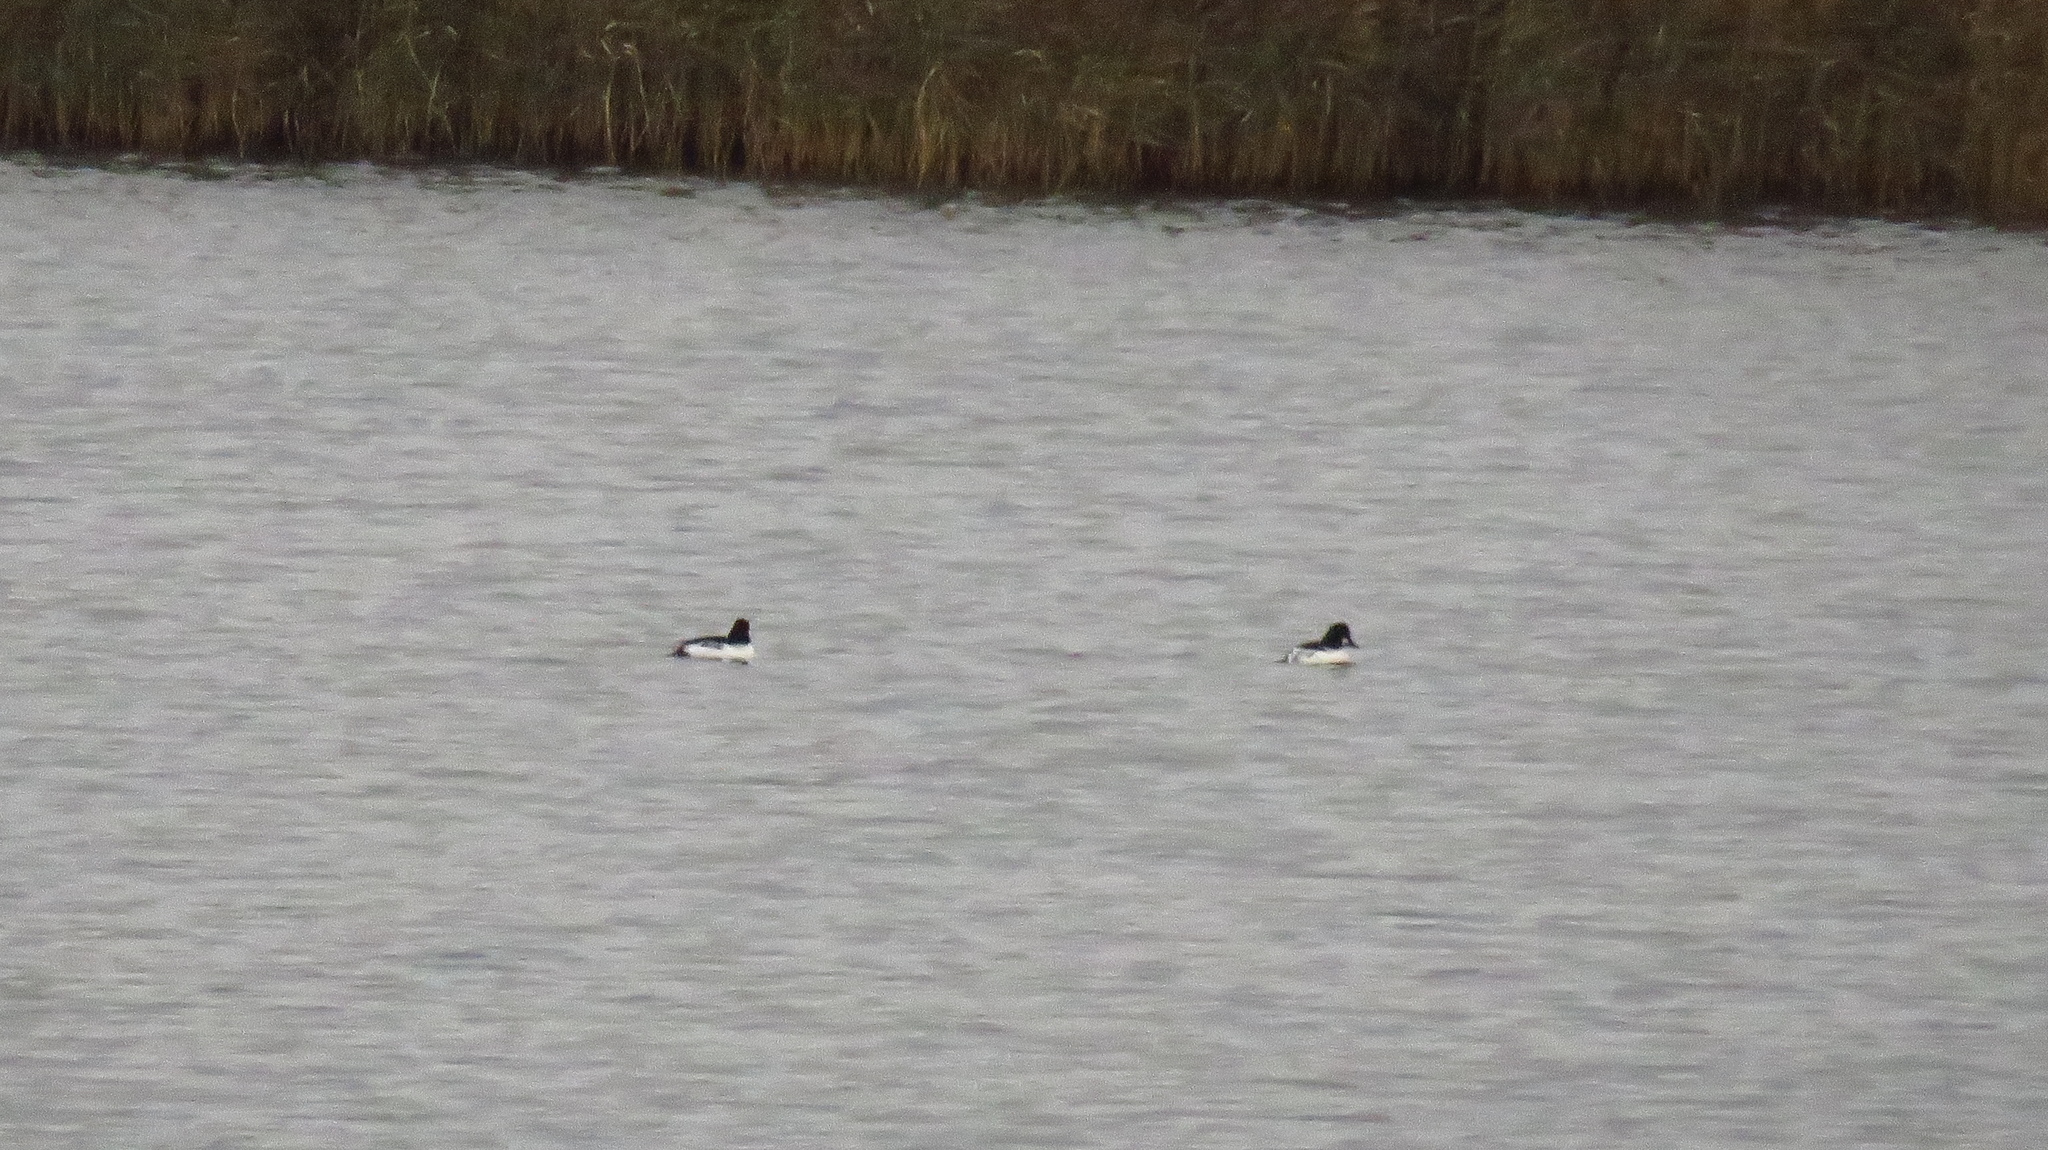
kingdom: Animalia
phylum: Chordata
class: Aves
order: Anseriformes
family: Anatidae
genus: Bucephala
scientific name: Bucephala clangula
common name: Common goldeneye
